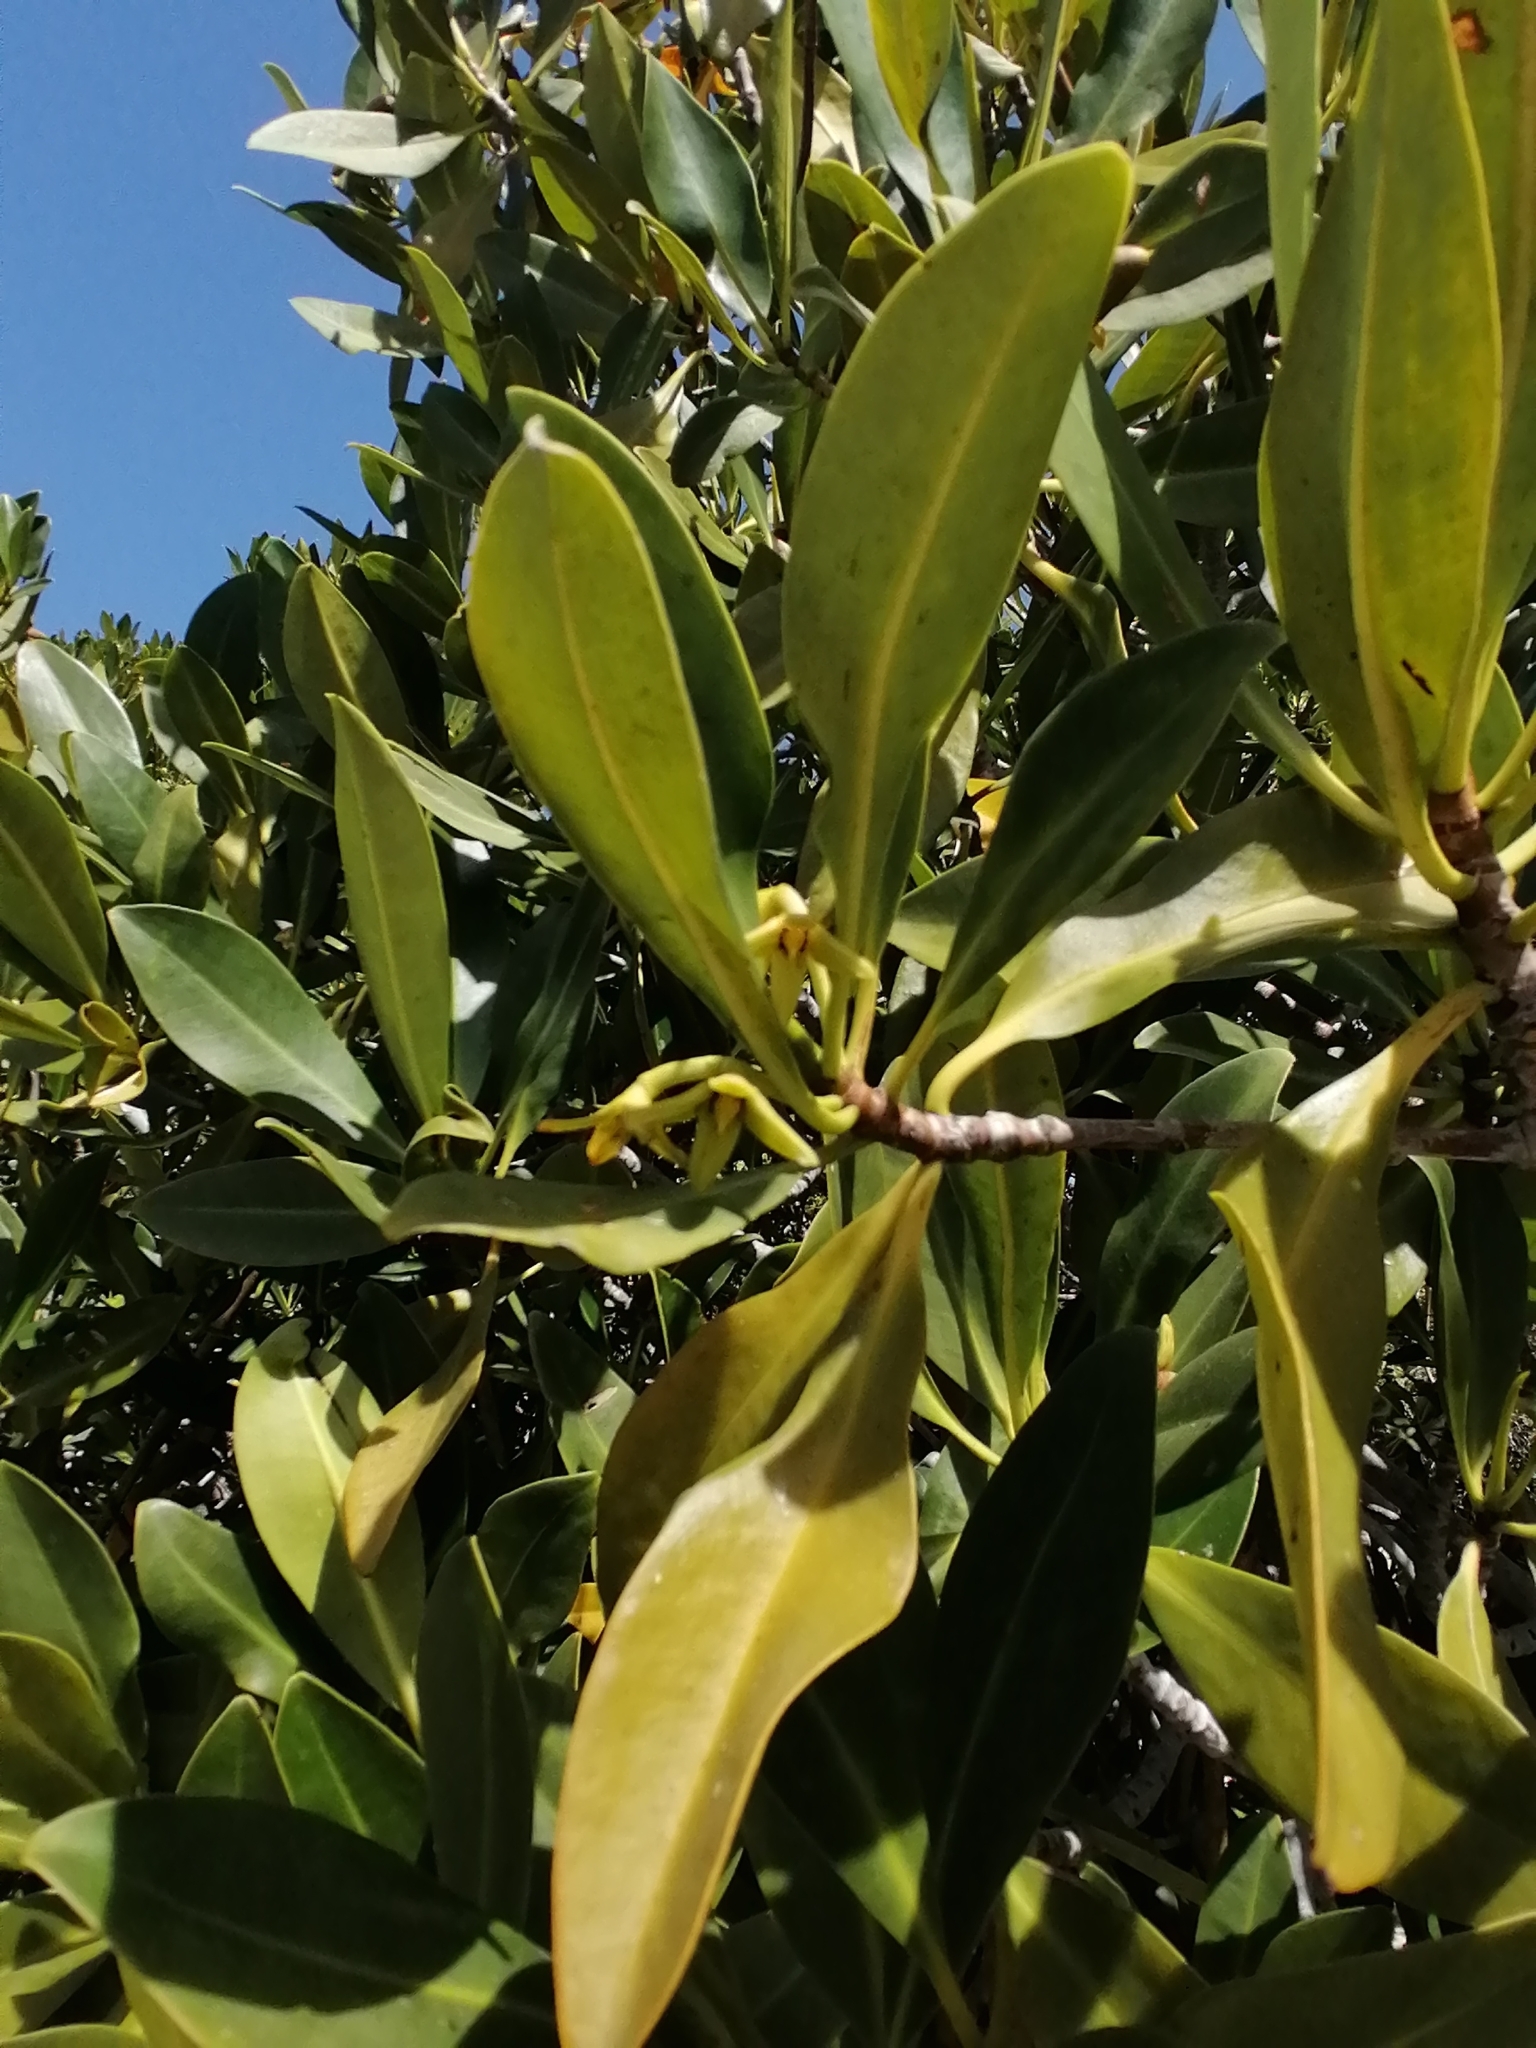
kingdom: Plantae
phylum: Tracheophyta
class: Magnoliopsida
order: Malpighiales
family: Rhizophoraceae
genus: Rhizophora
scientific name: Rhizophora mangle
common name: Red mangrove
